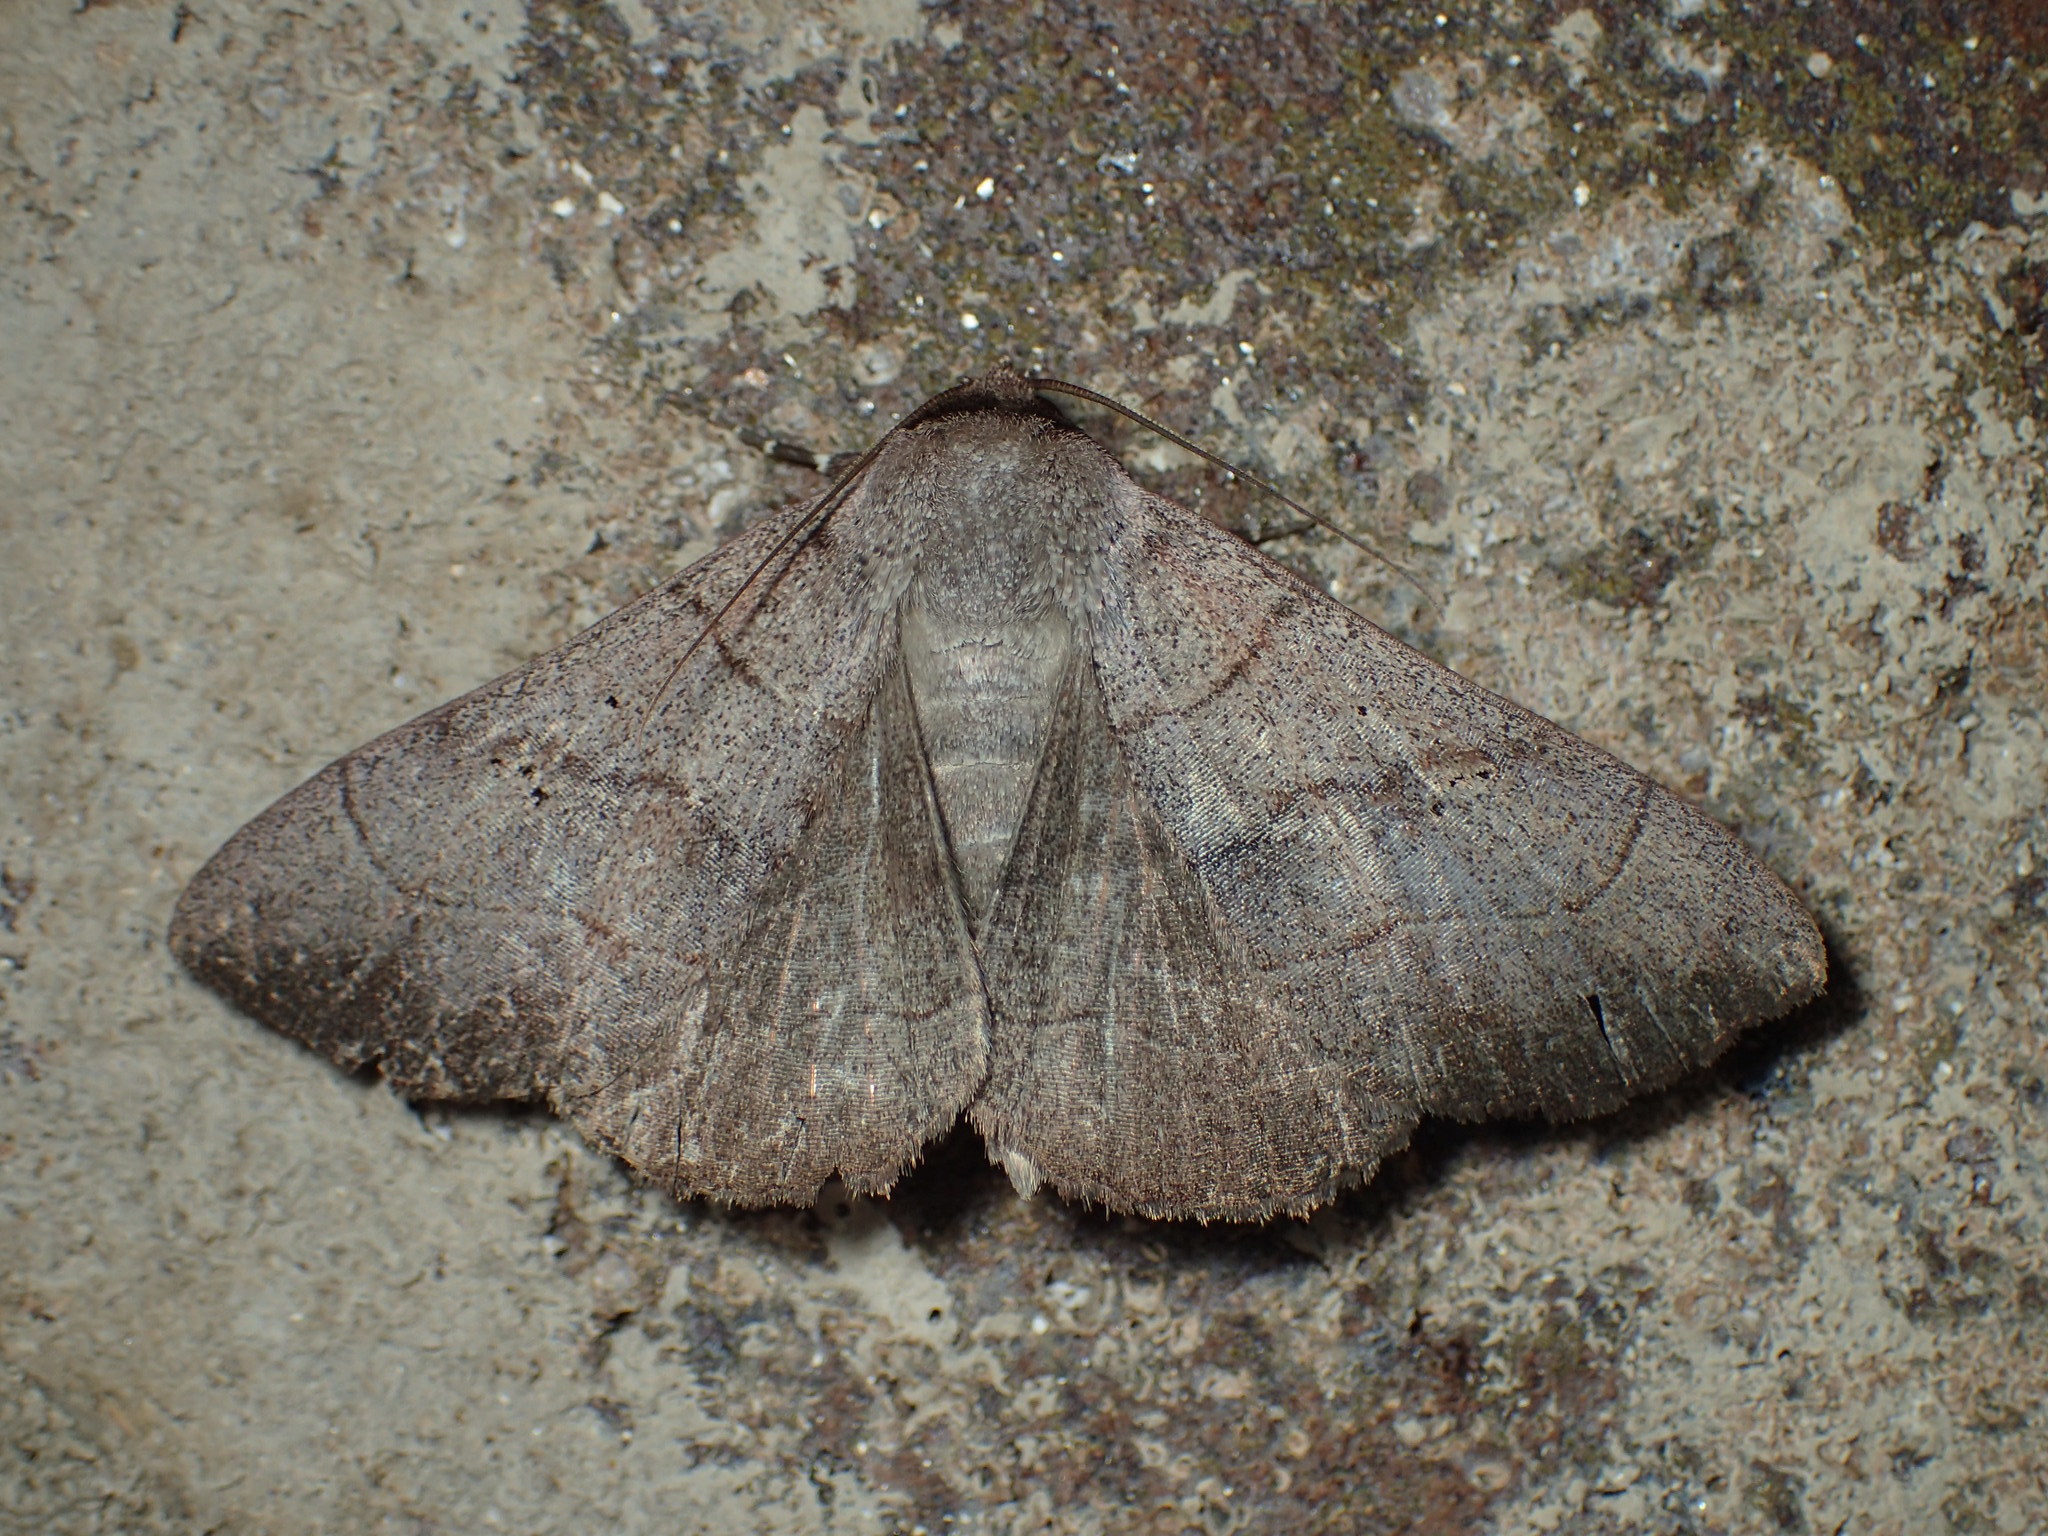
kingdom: Animalia
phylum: Arthropoda
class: Insecta
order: Lepidoptera
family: Erebidae
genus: Panopoda
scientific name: Panopoda carneicosta
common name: Brown panopoda moth
